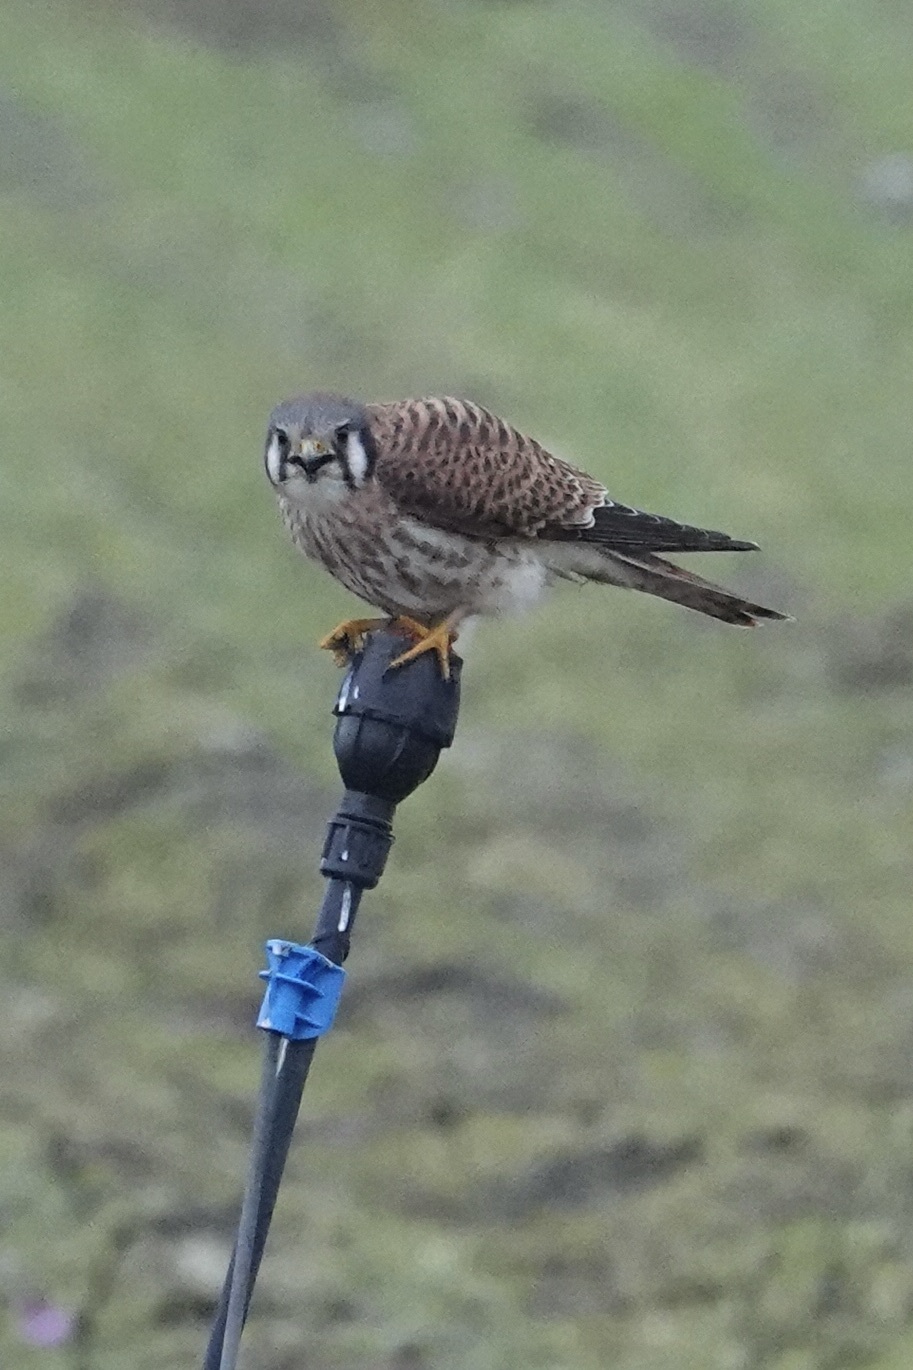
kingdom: Animalia
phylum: Chordata
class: Aves
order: Falconiformes
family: Falconidae
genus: Falco
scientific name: Falco sparverius
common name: American kestrel
